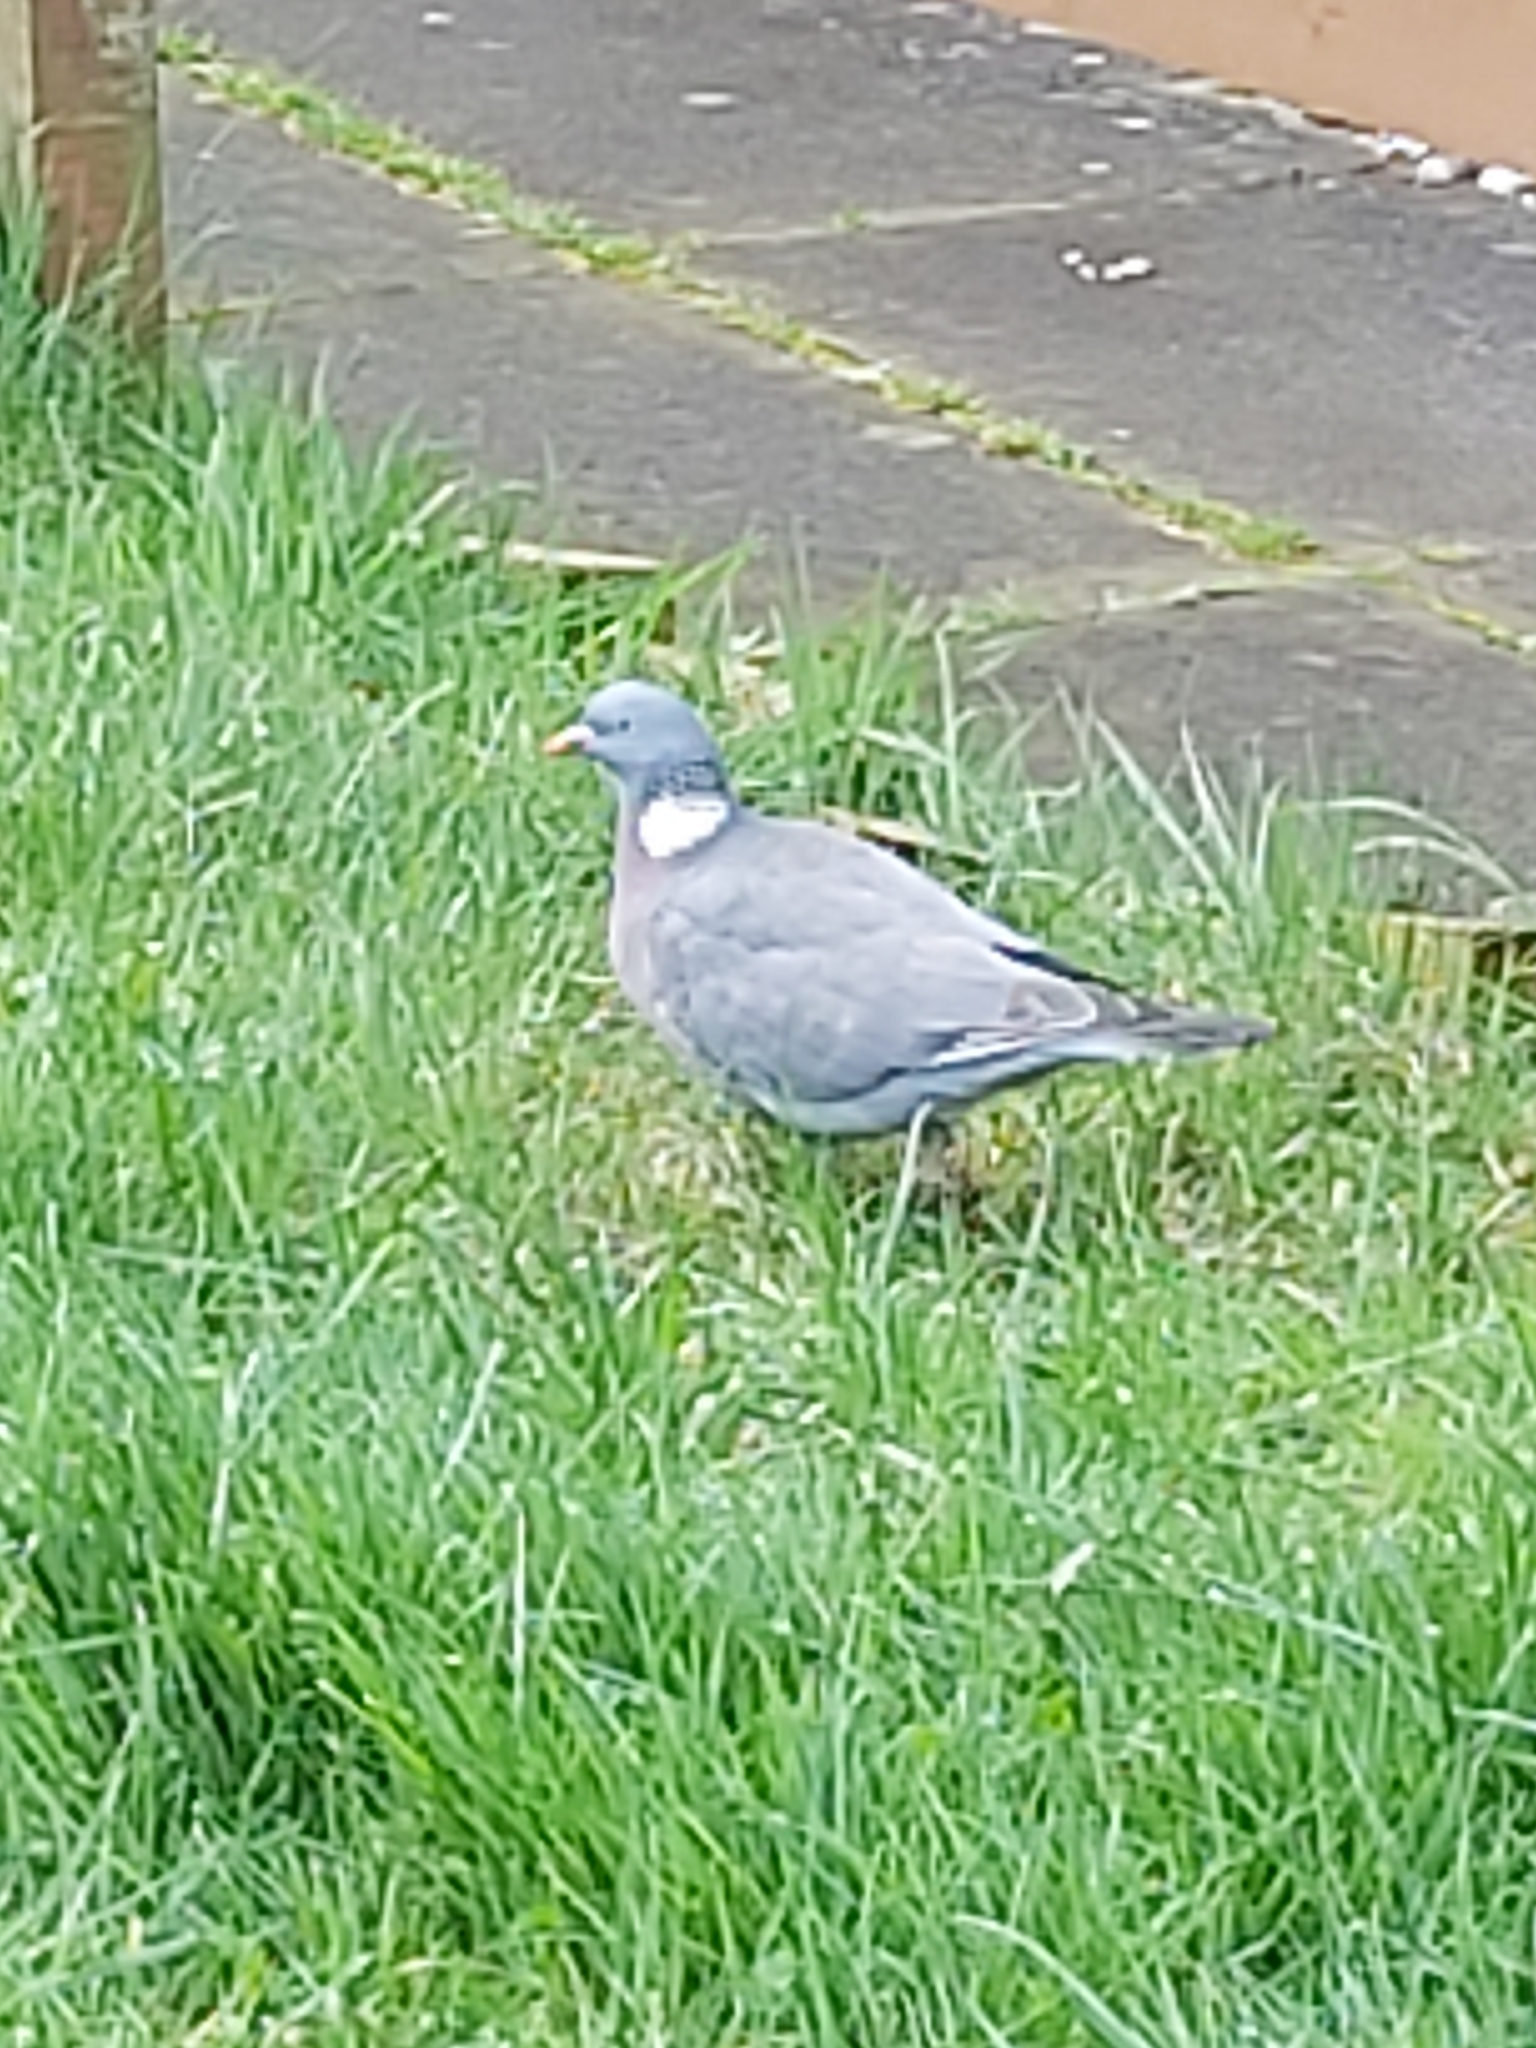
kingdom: Animalia
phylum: Chordata
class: Aves
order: Columbiformes
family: Columbidae
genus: Columba
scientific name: Columba palumbus
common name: Common wood pigeon
